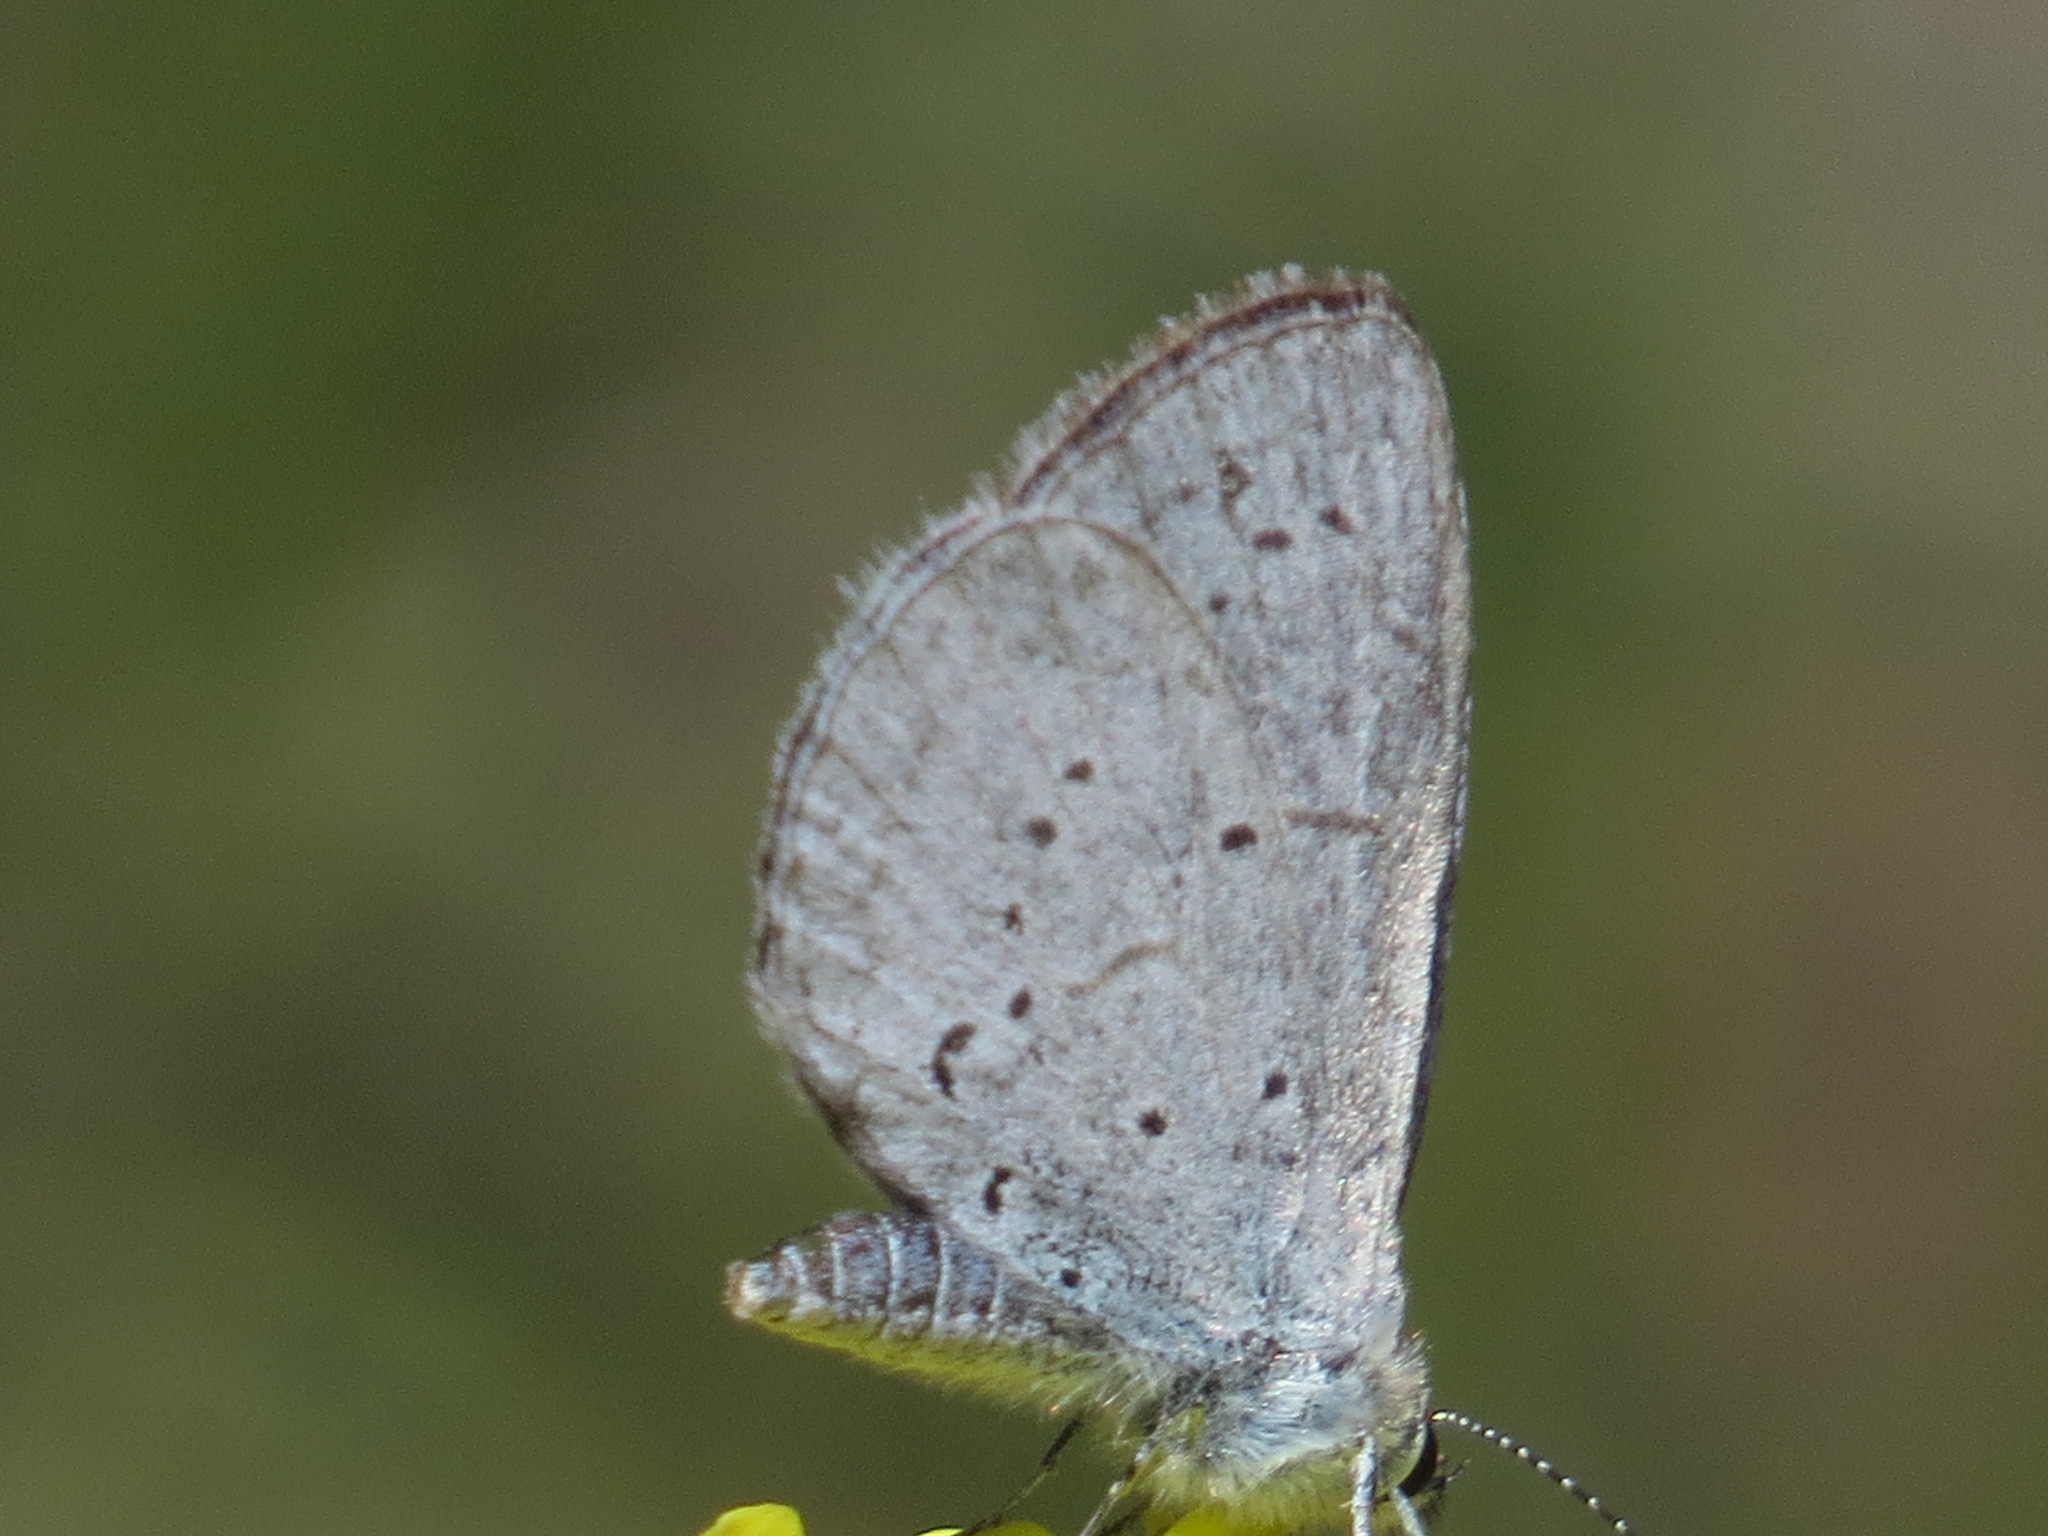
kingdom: Animalia
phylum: Arthropoda
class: Insecta
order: Lepidoptera
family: Lycaenidae
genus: Celastrina
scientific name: Celastrina ladon
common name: Spring azure
